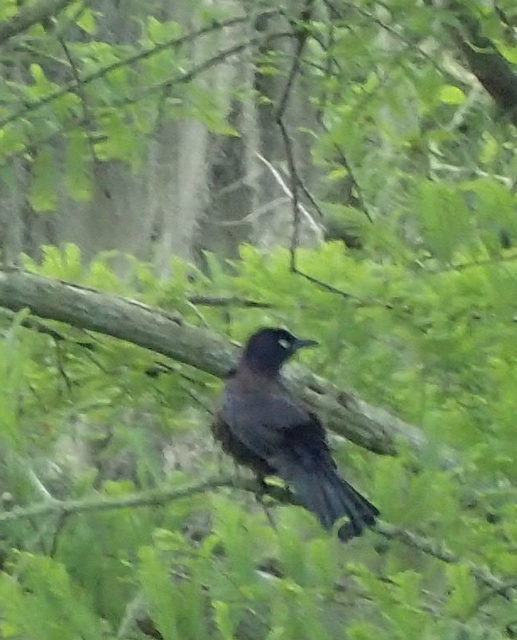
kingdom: Animalia
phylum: Chordata
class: Aves
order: Passeriformes
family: Icteridae
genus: Quiscalus
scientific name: Quiscalus quiscula
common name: Common grackle
